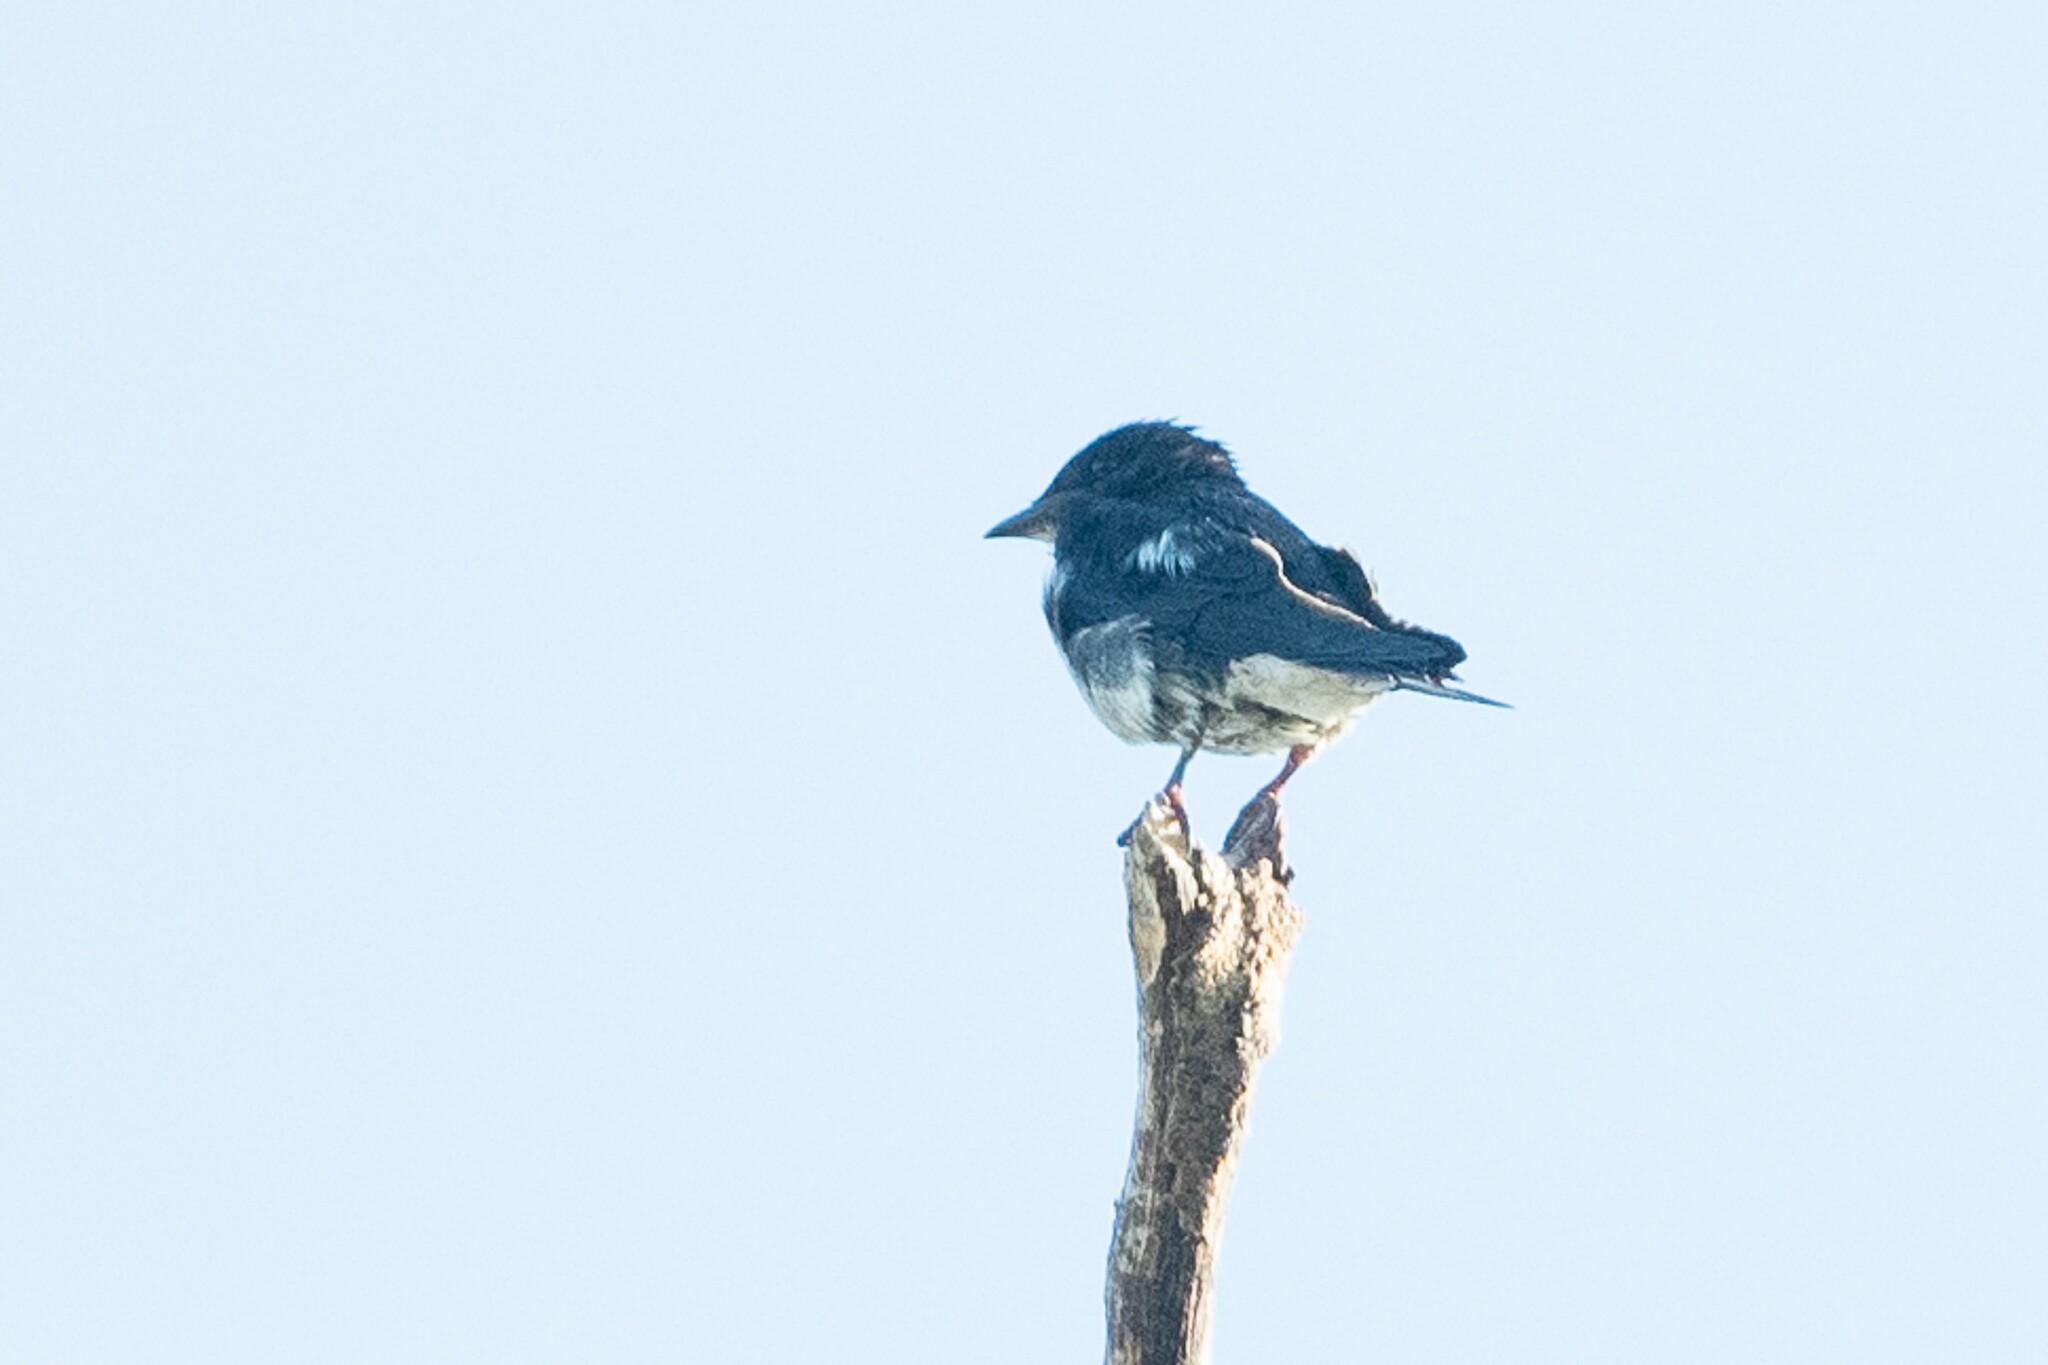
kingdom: Animalia
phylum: Chordata
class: Aves
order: Passeriformes
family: Hirundinidae
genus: Progne
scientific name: Progne chalybea
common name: Grey-breasted martin
